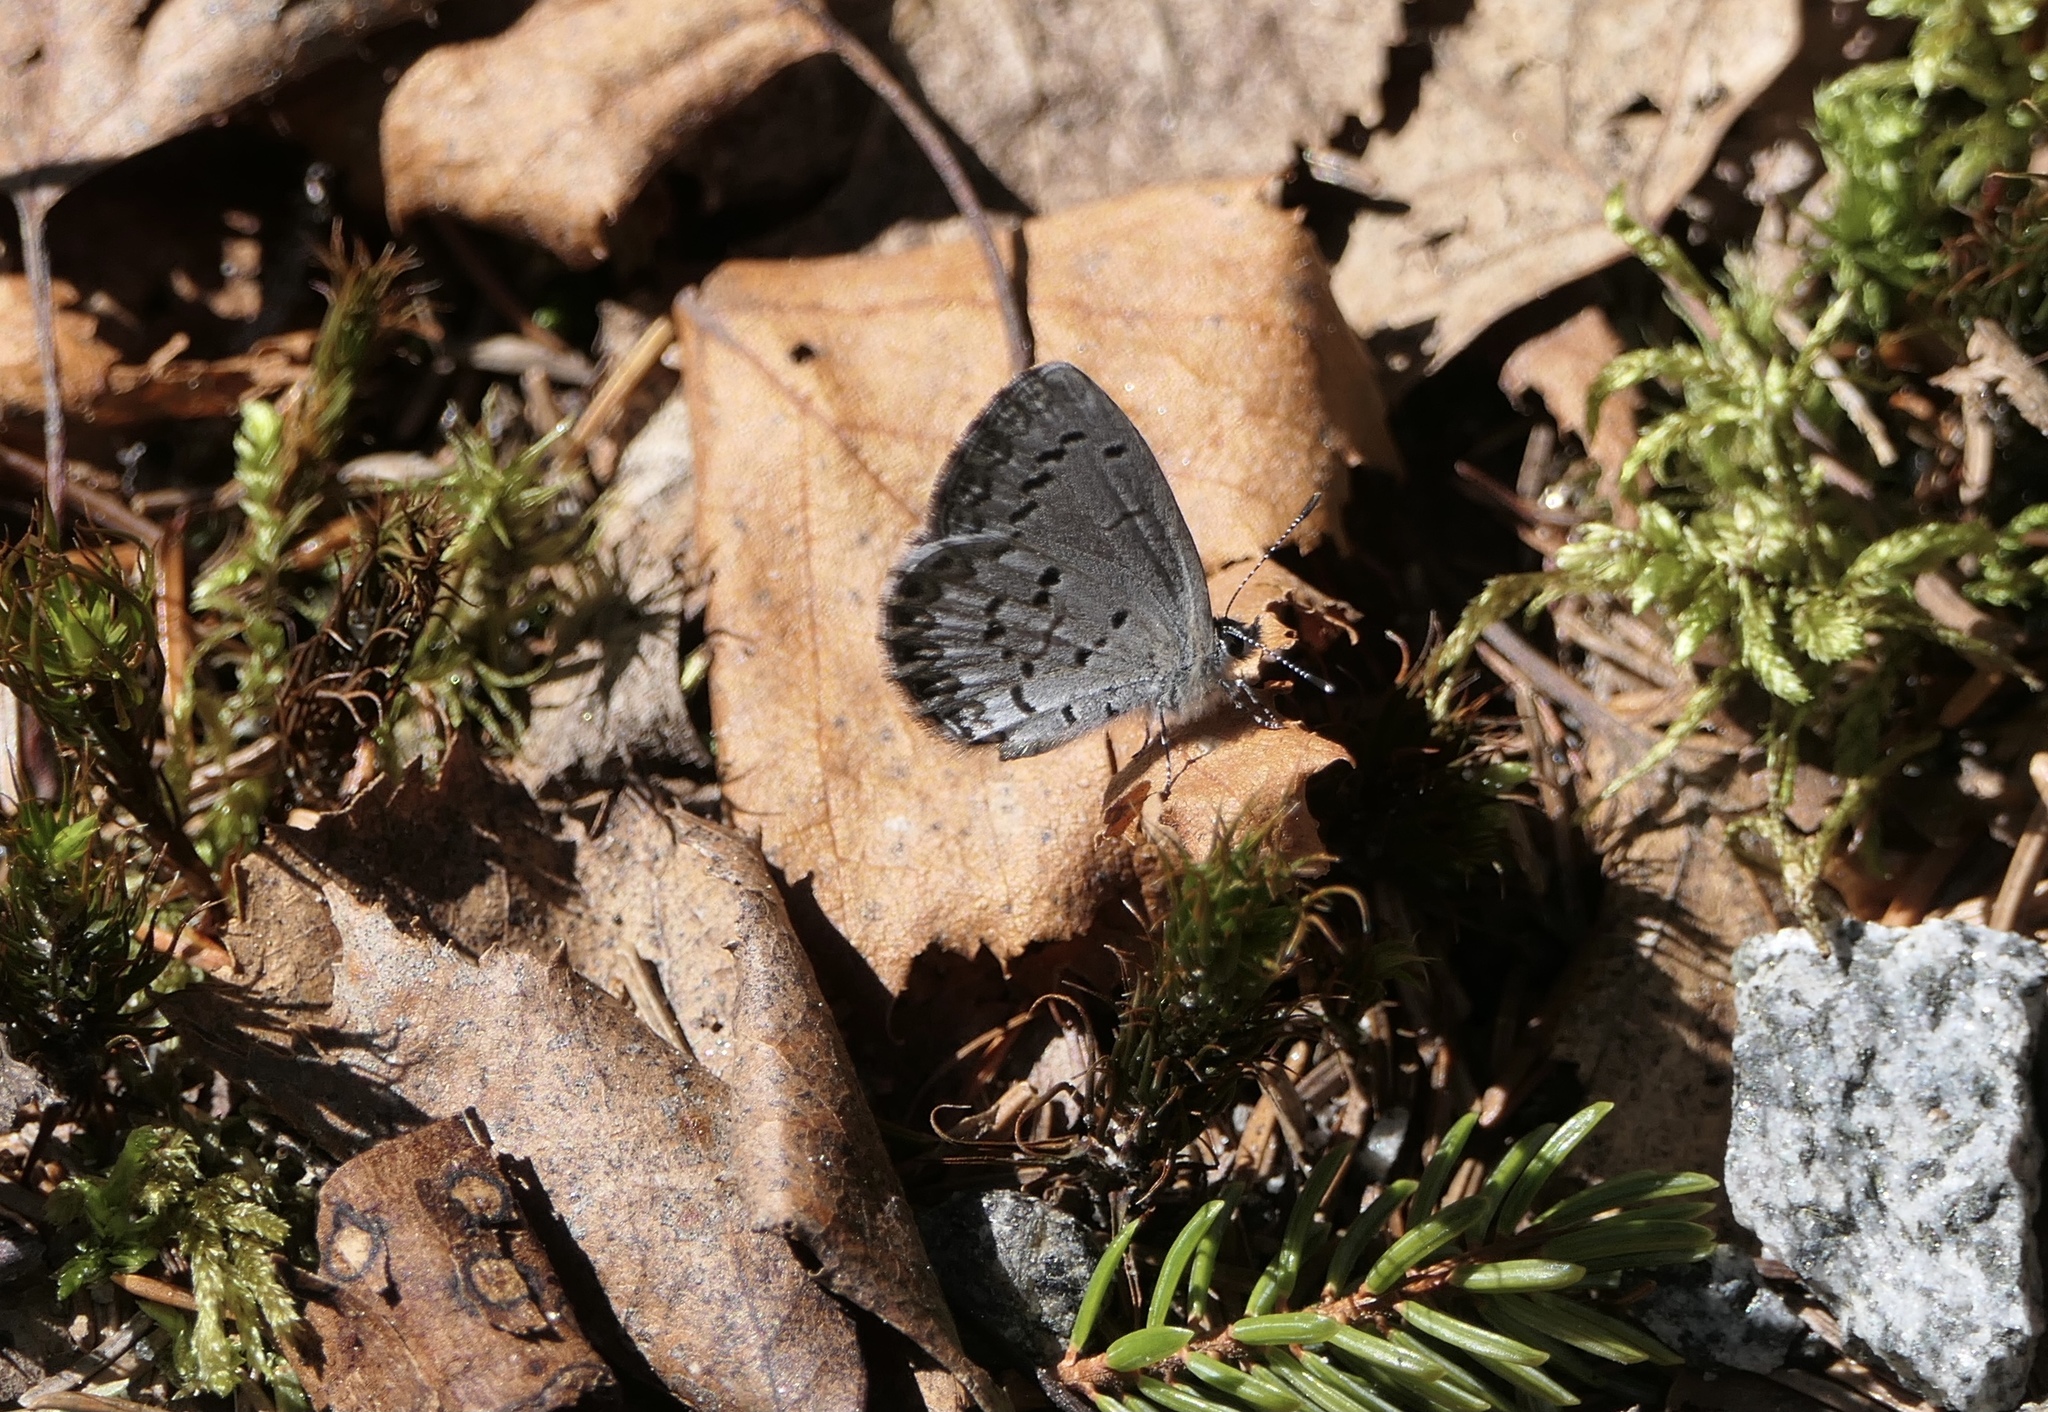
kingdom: Animalia
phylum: Arthropoda
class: Insecta
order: Lepidoptera
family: Lycaenidae
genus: Celastrina
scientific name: Celastrina lucia
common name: Lucia azure
